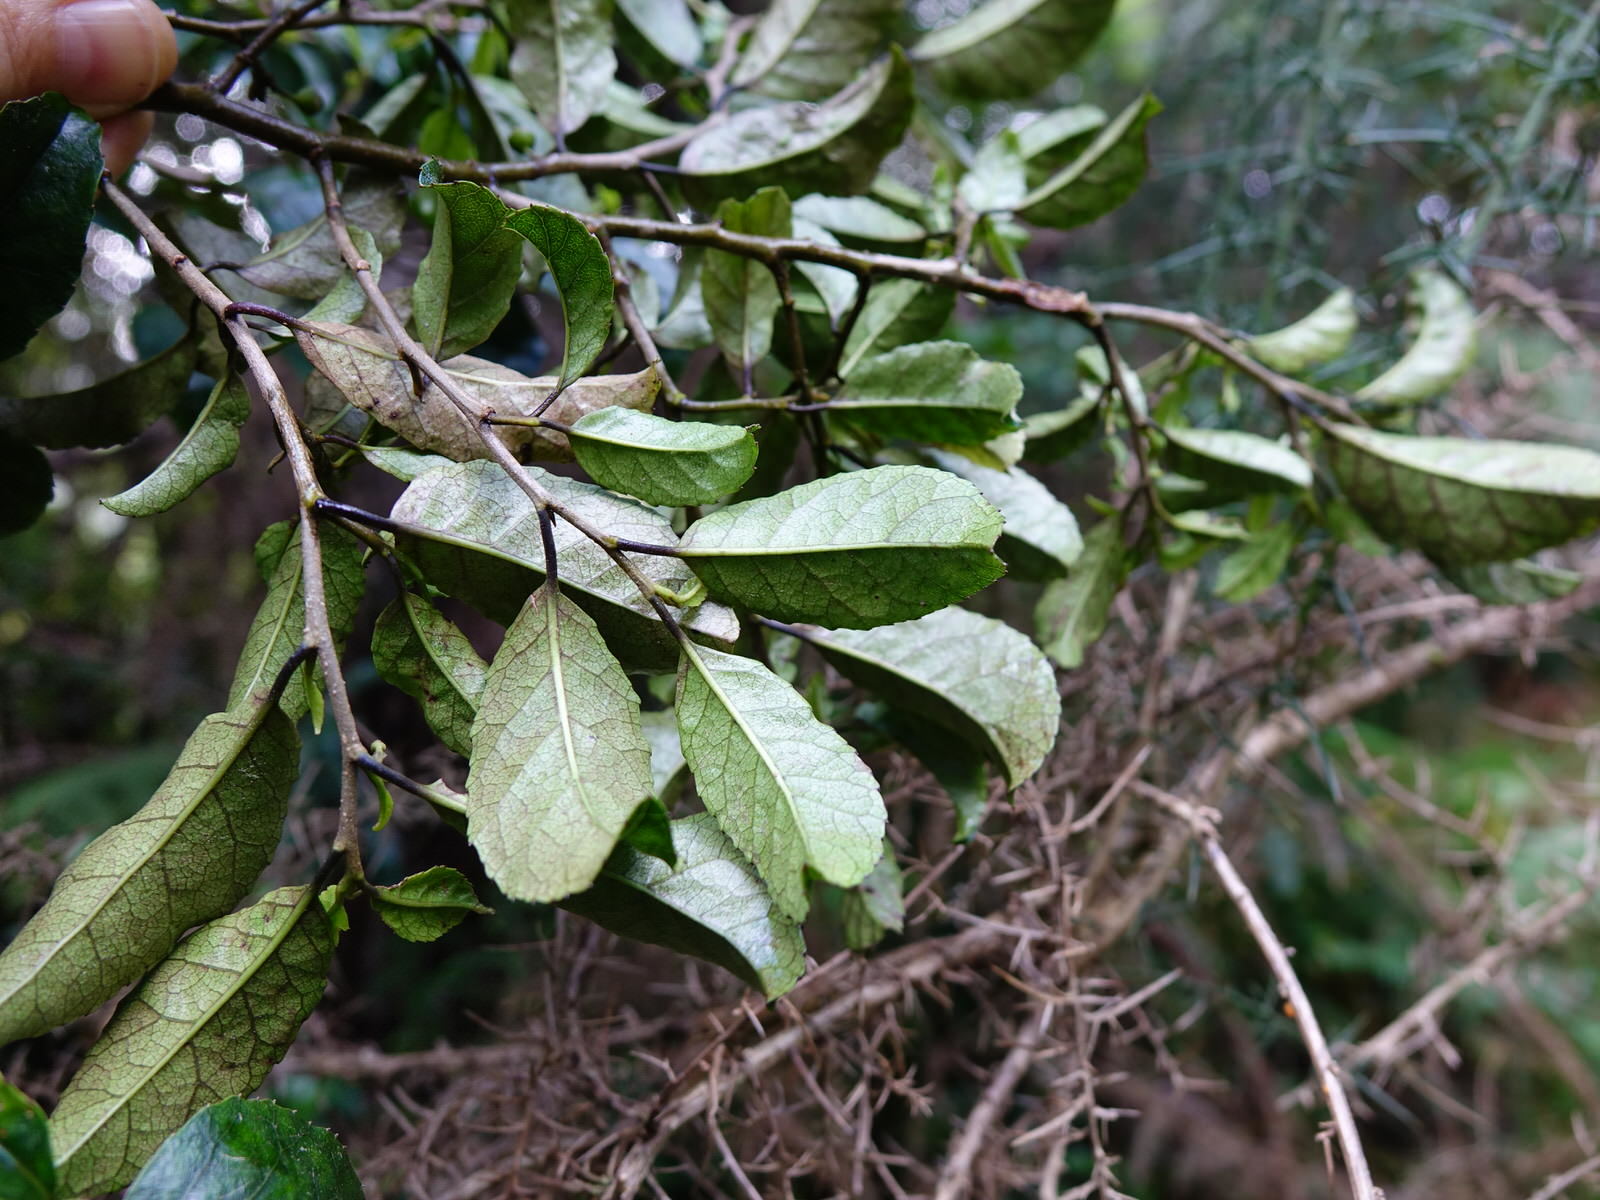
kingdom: Plantae
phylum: Tracheophyta
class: Magnoliopsida
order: Asterales
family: Rousseaceae
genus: Carpodetus
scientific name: Carpodetus serratus
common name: White mapau
